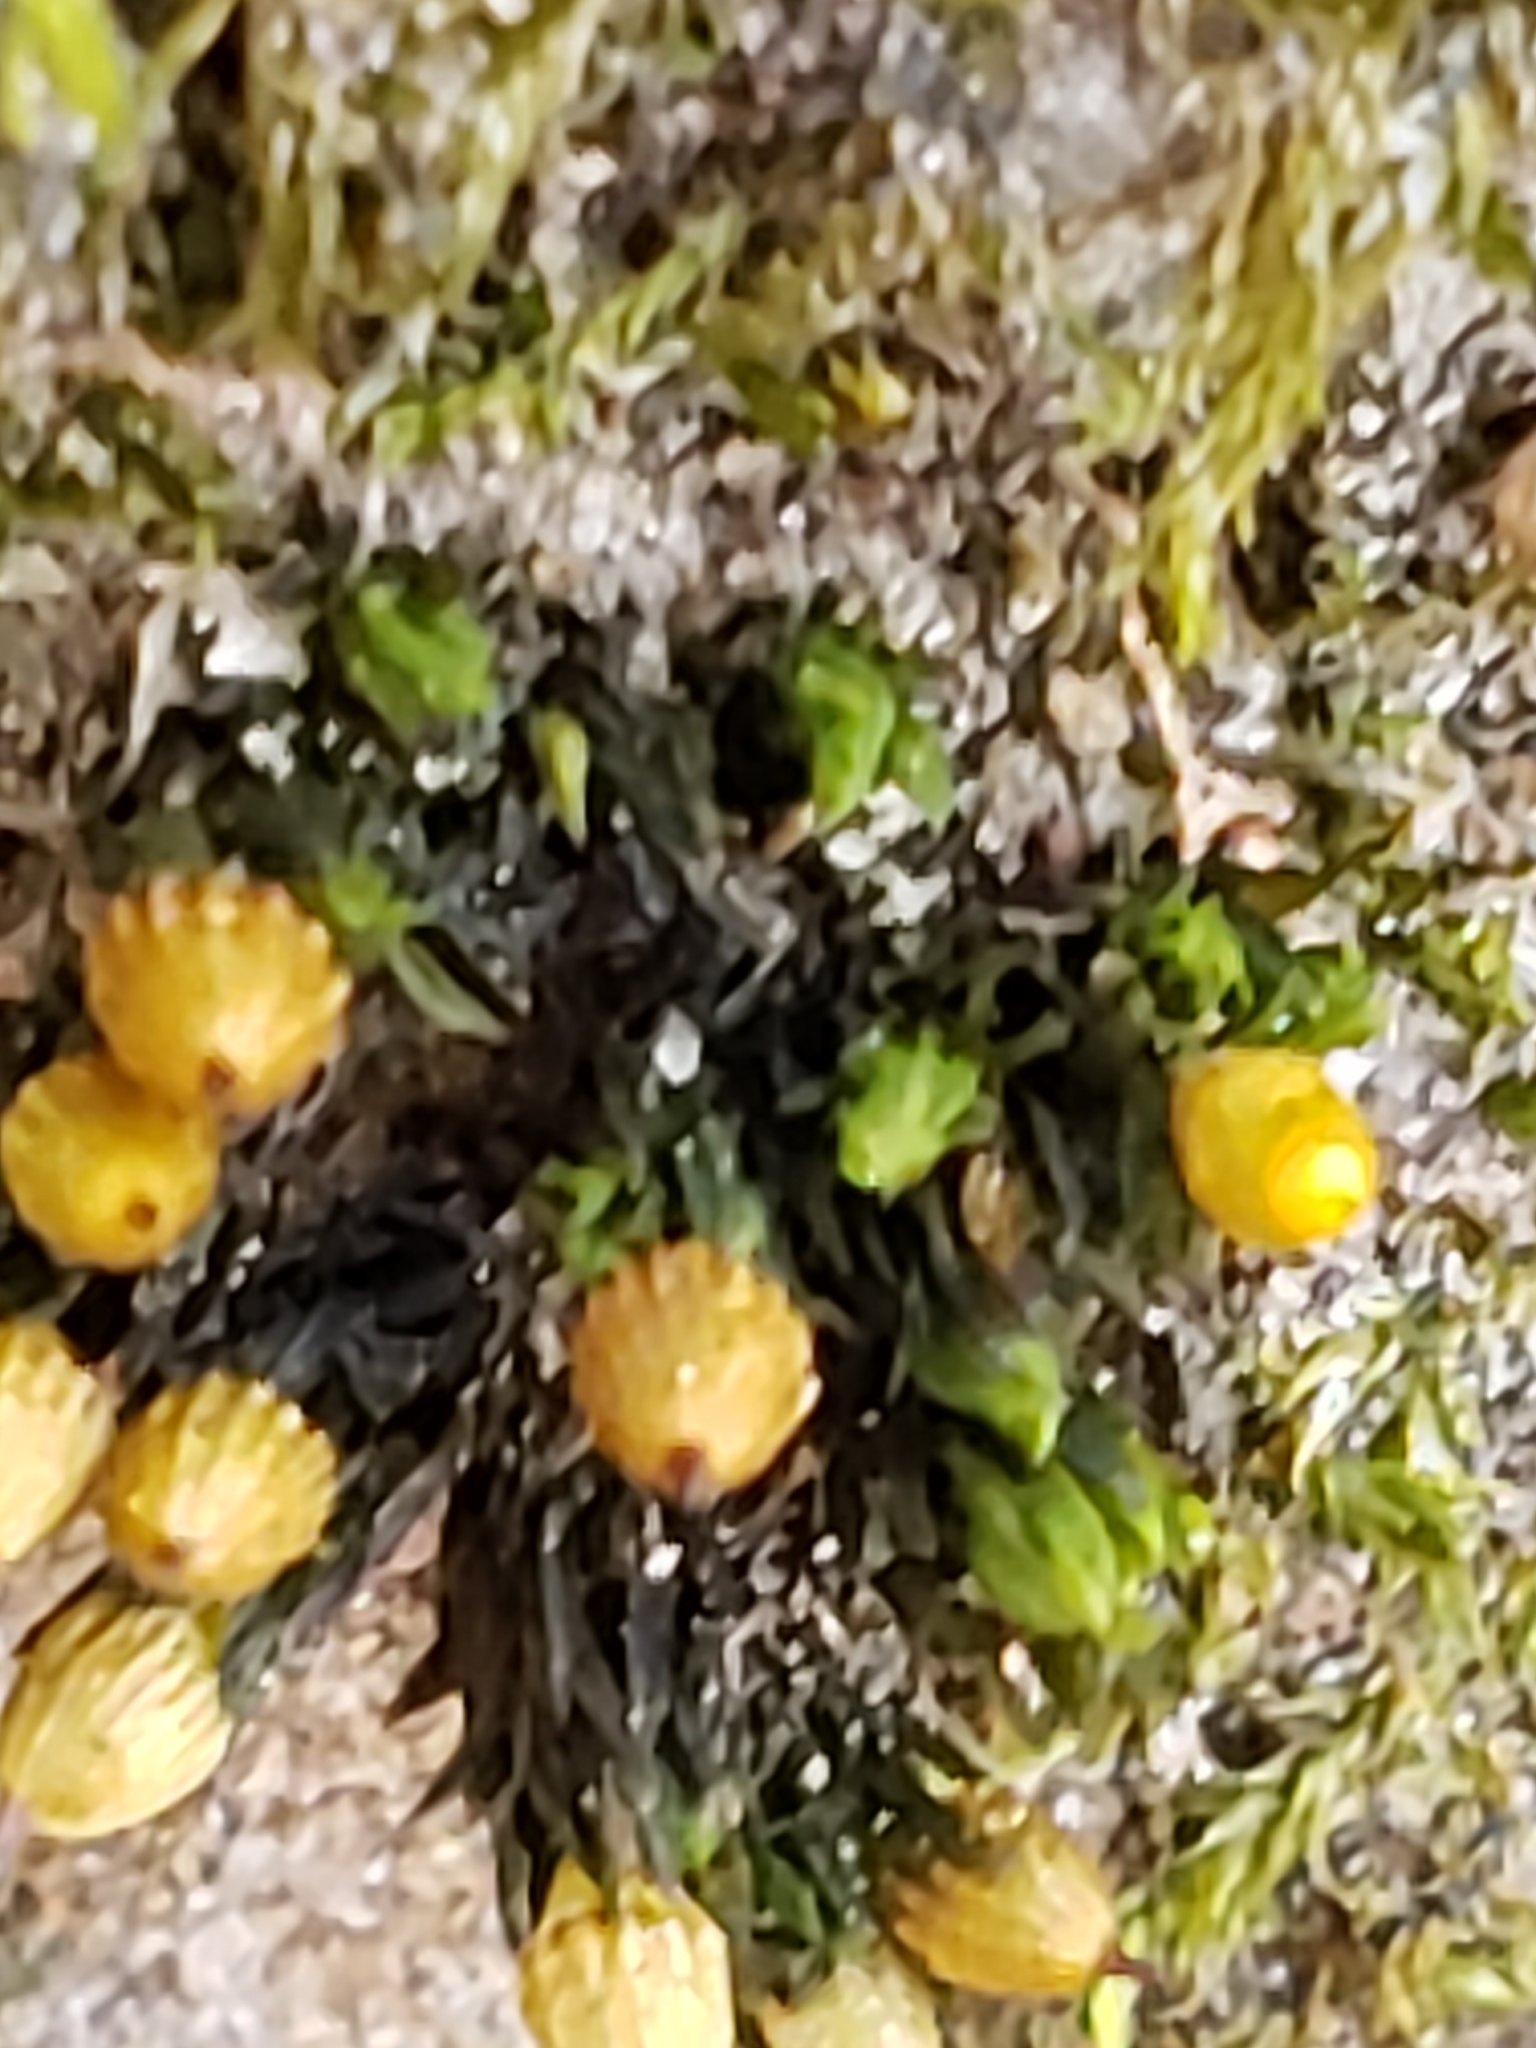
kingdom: Plantae
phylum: Bryophyta
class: Bryopsida
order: Orthotrichales
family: Orthotrichaceae
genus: Orthotrichum
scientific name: Orthotrichum anomalum
